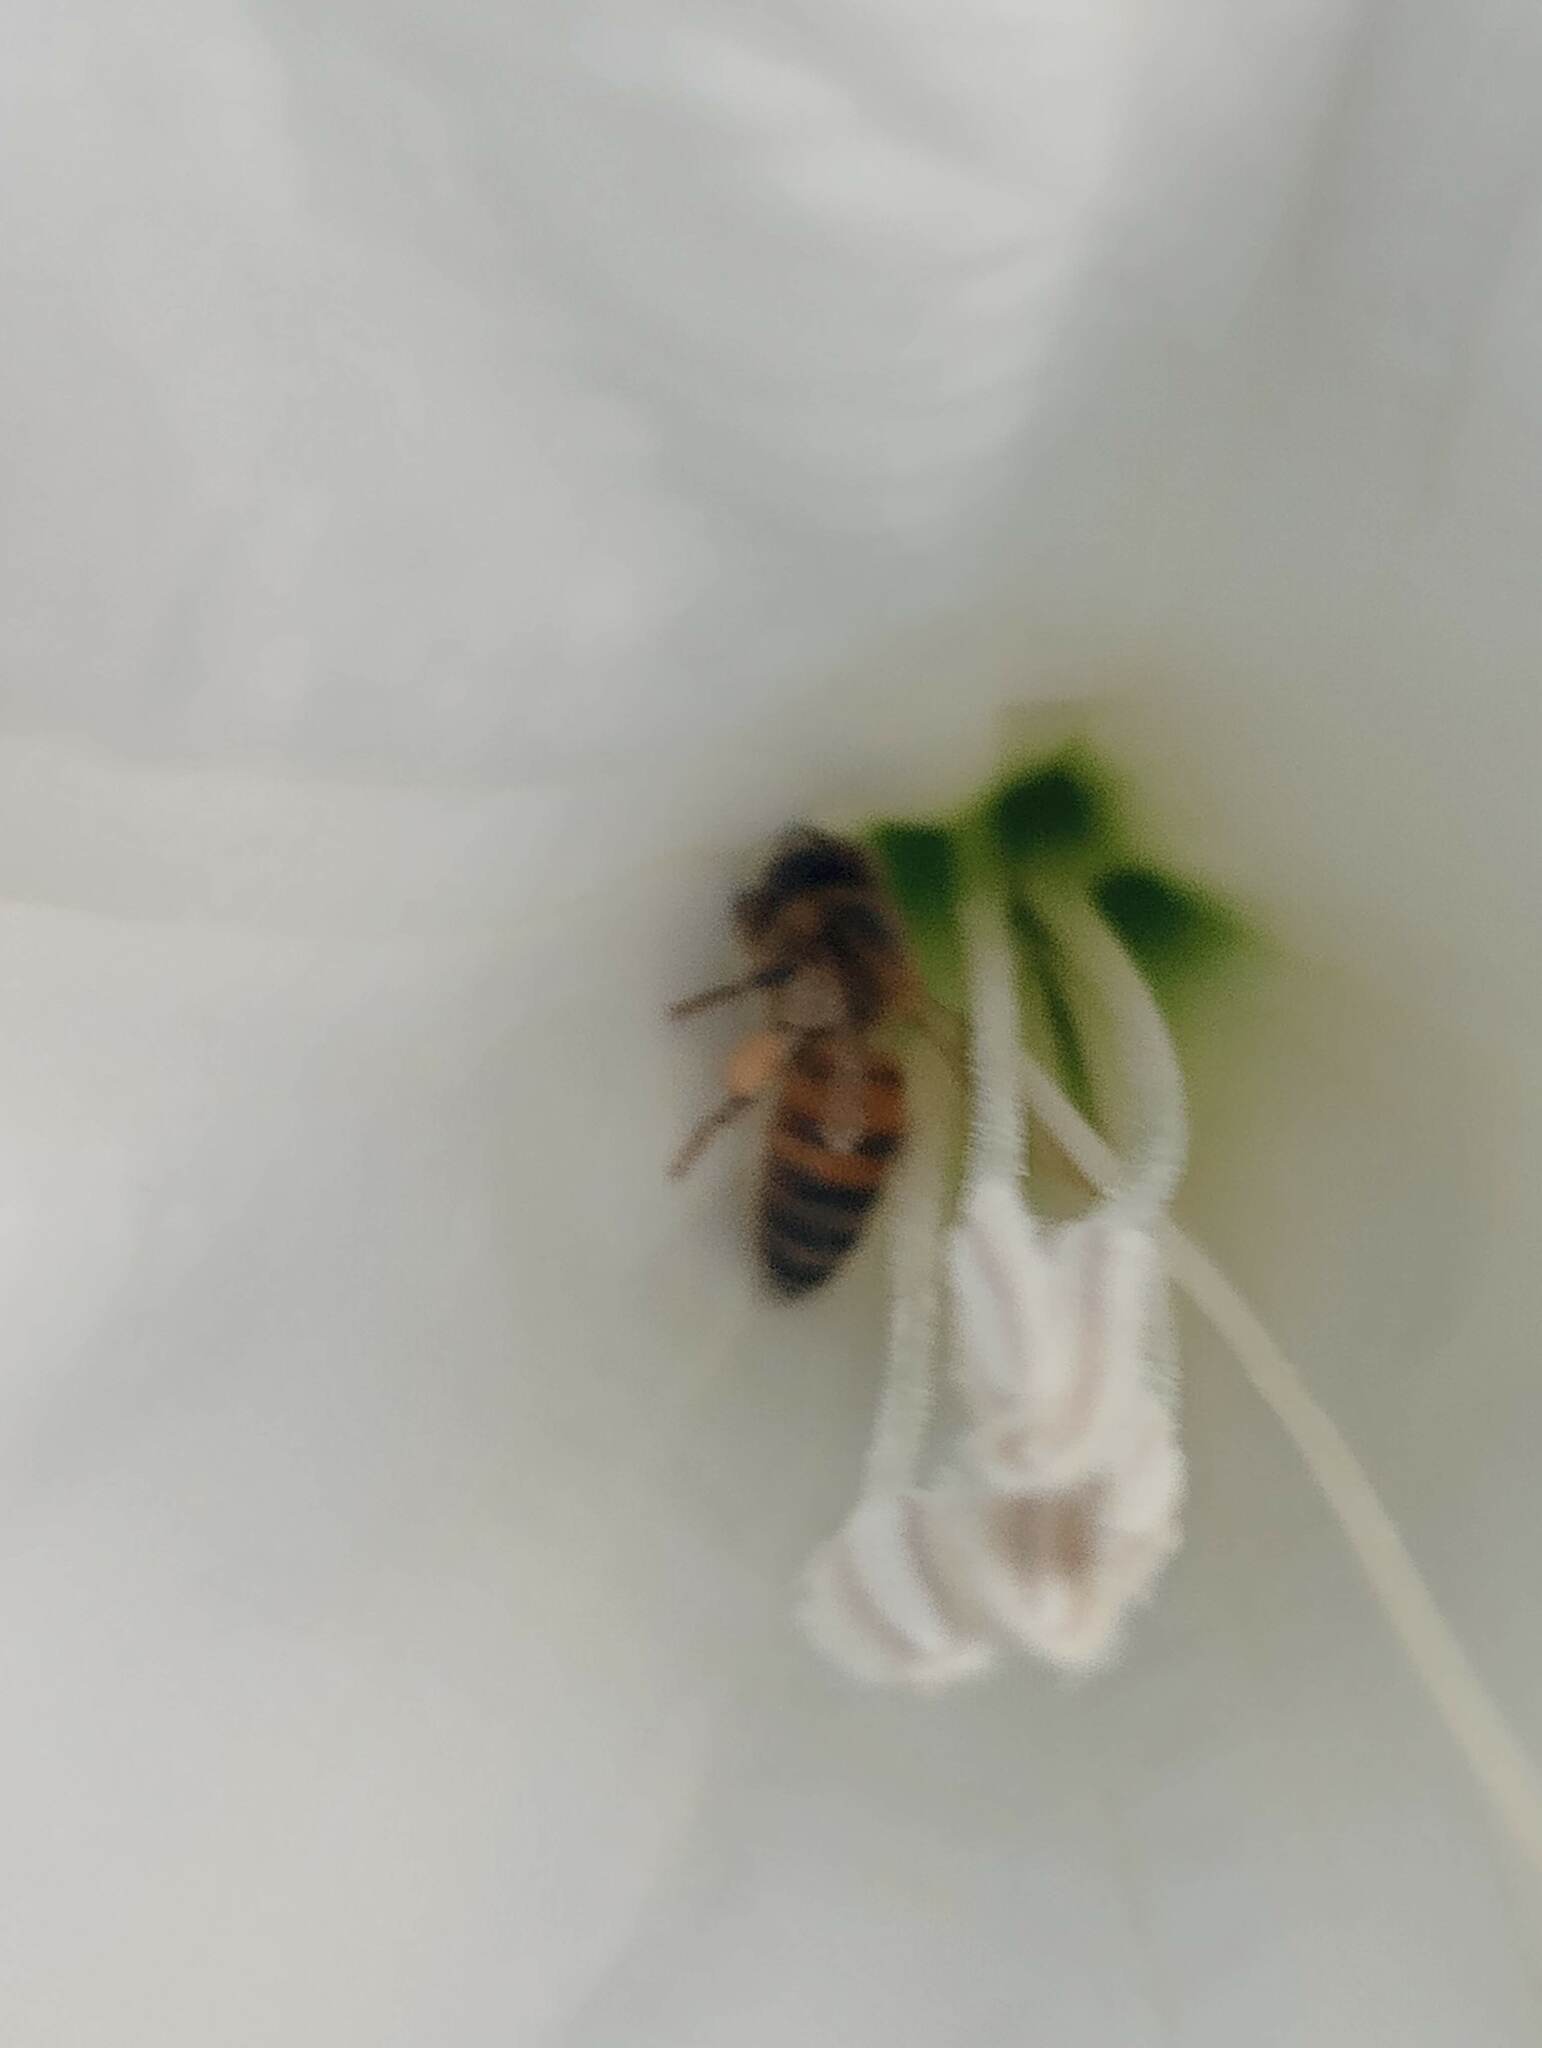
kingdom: Animalia
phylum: Arthropoda
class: Insecta
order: Hymenoptera
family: Apidae
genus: Apis
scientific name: Apis mellifera
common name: Honey bee
